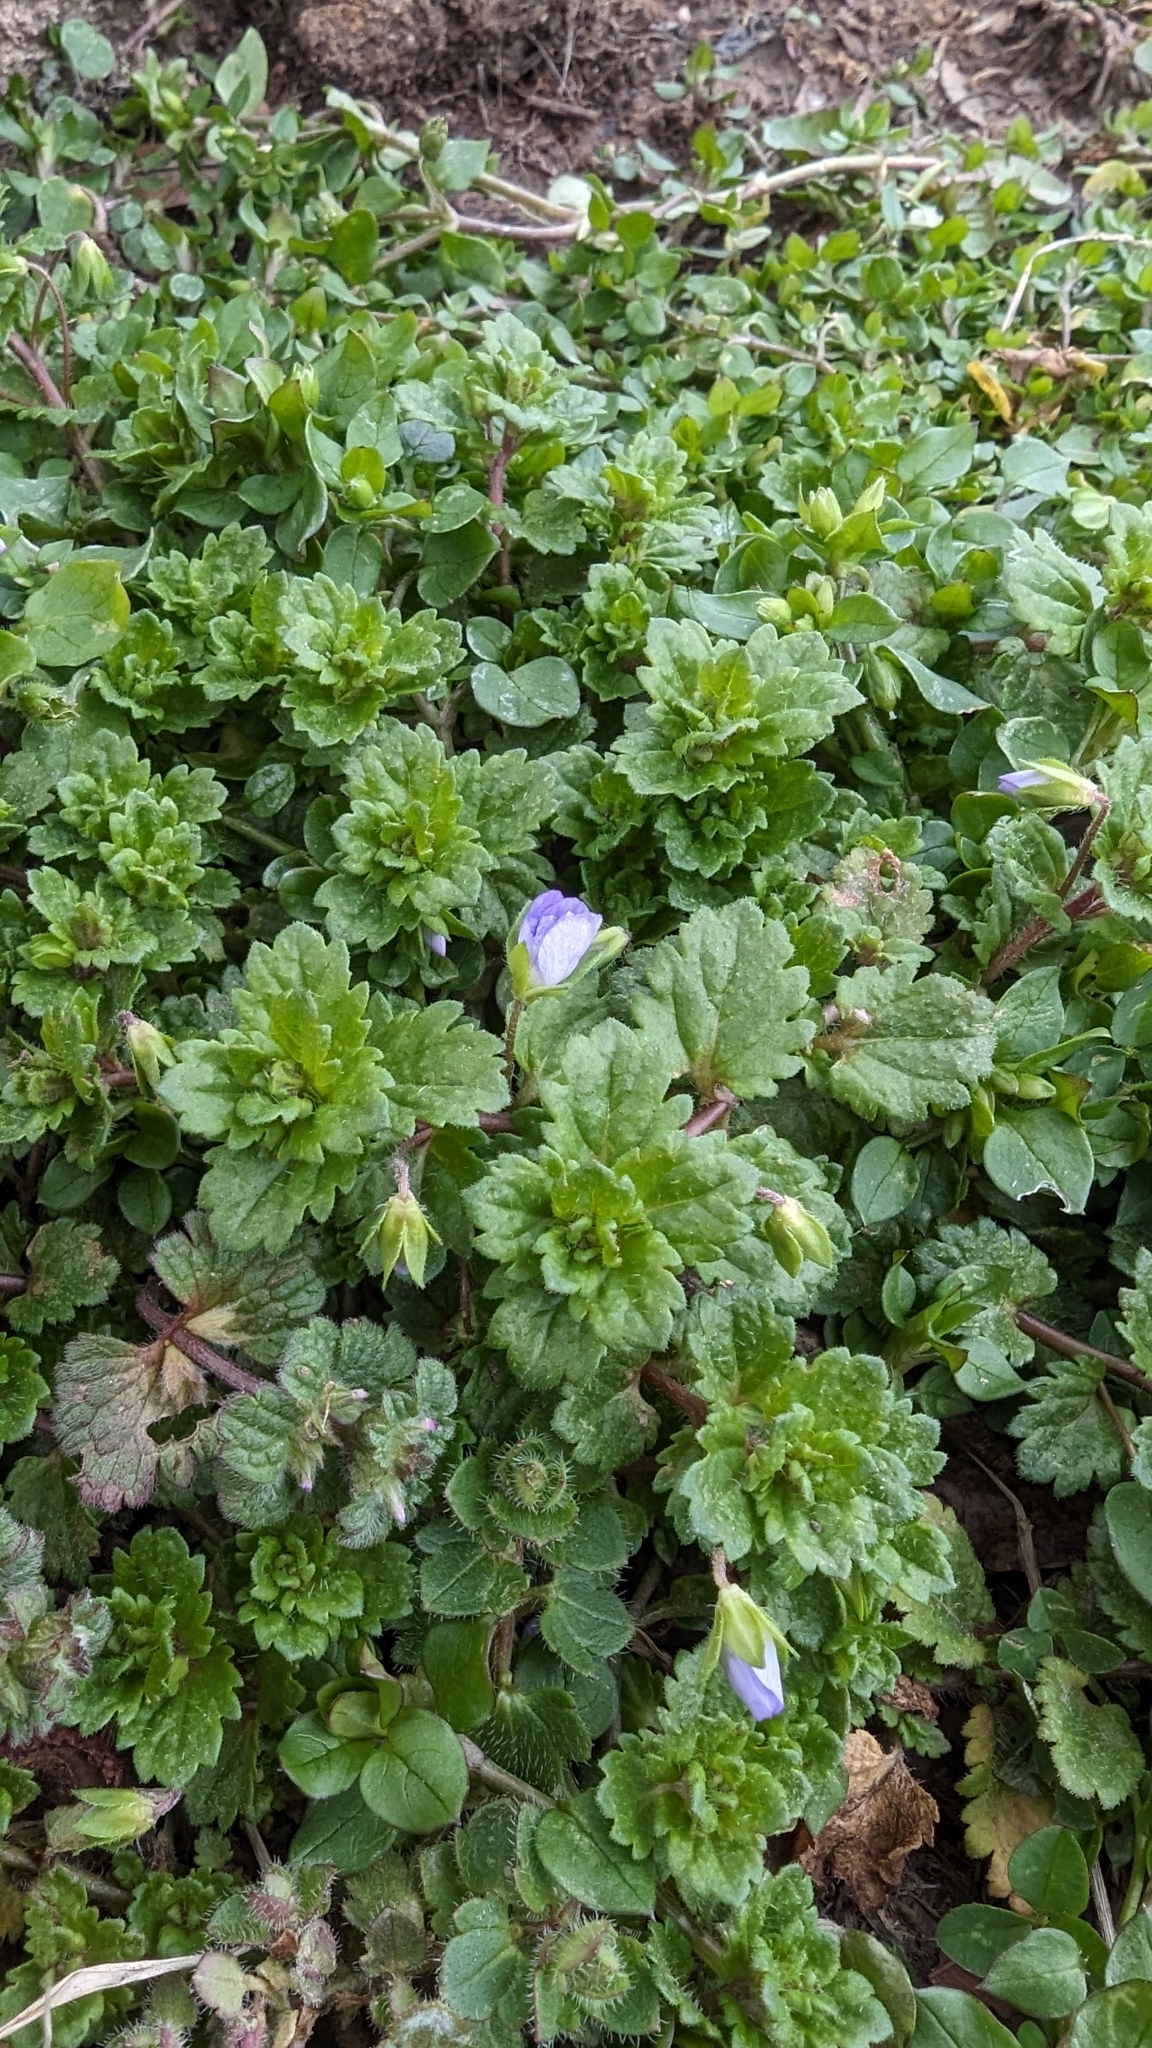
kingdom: Plantae
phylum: Tracheophyta
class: Magnoliopsida
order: Lamiales
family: Plantaginaceae
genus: Veronica
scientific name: Veronica persica
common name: Common field-speedwell
